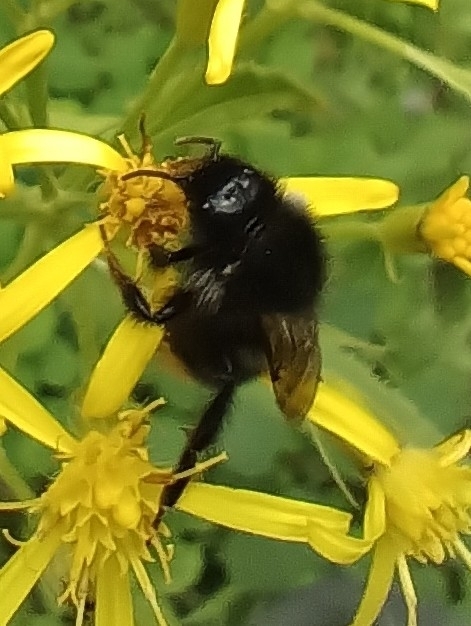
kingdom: Animalia
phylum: Arthropoda
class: Insecta
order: Hymenoptera
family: Apidae
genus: Bombus
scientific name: Bombus rupestris
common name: Hill cuckoo-bee
